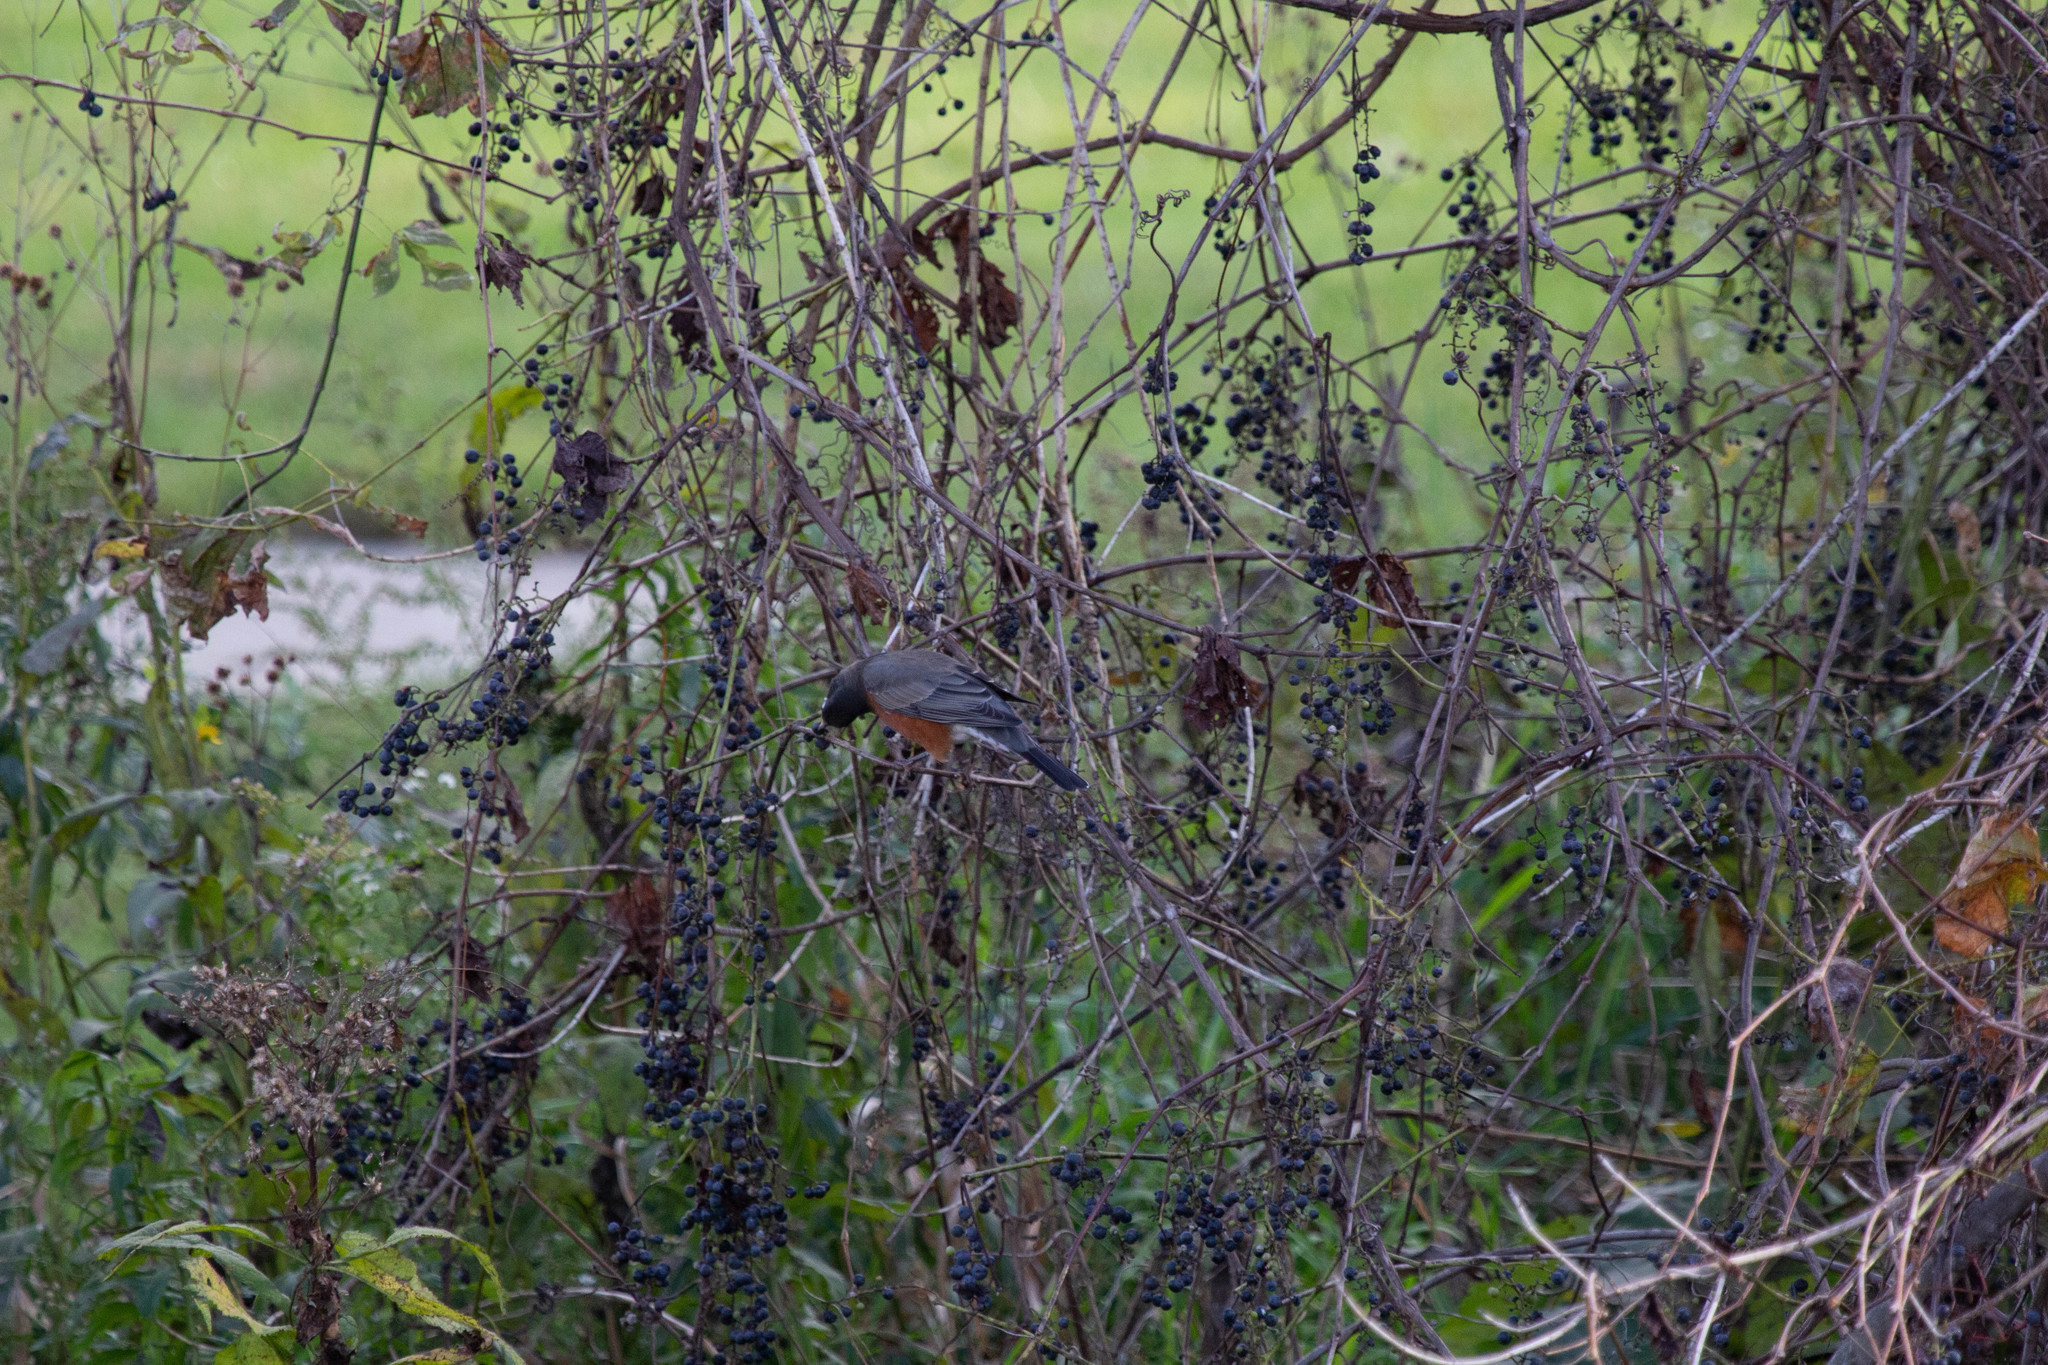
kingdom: Animalia
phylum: Chordata
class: Aves
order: Passeriformes
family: Turdidae
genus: Turdus
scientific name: Turdus migratorius
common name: American robin
